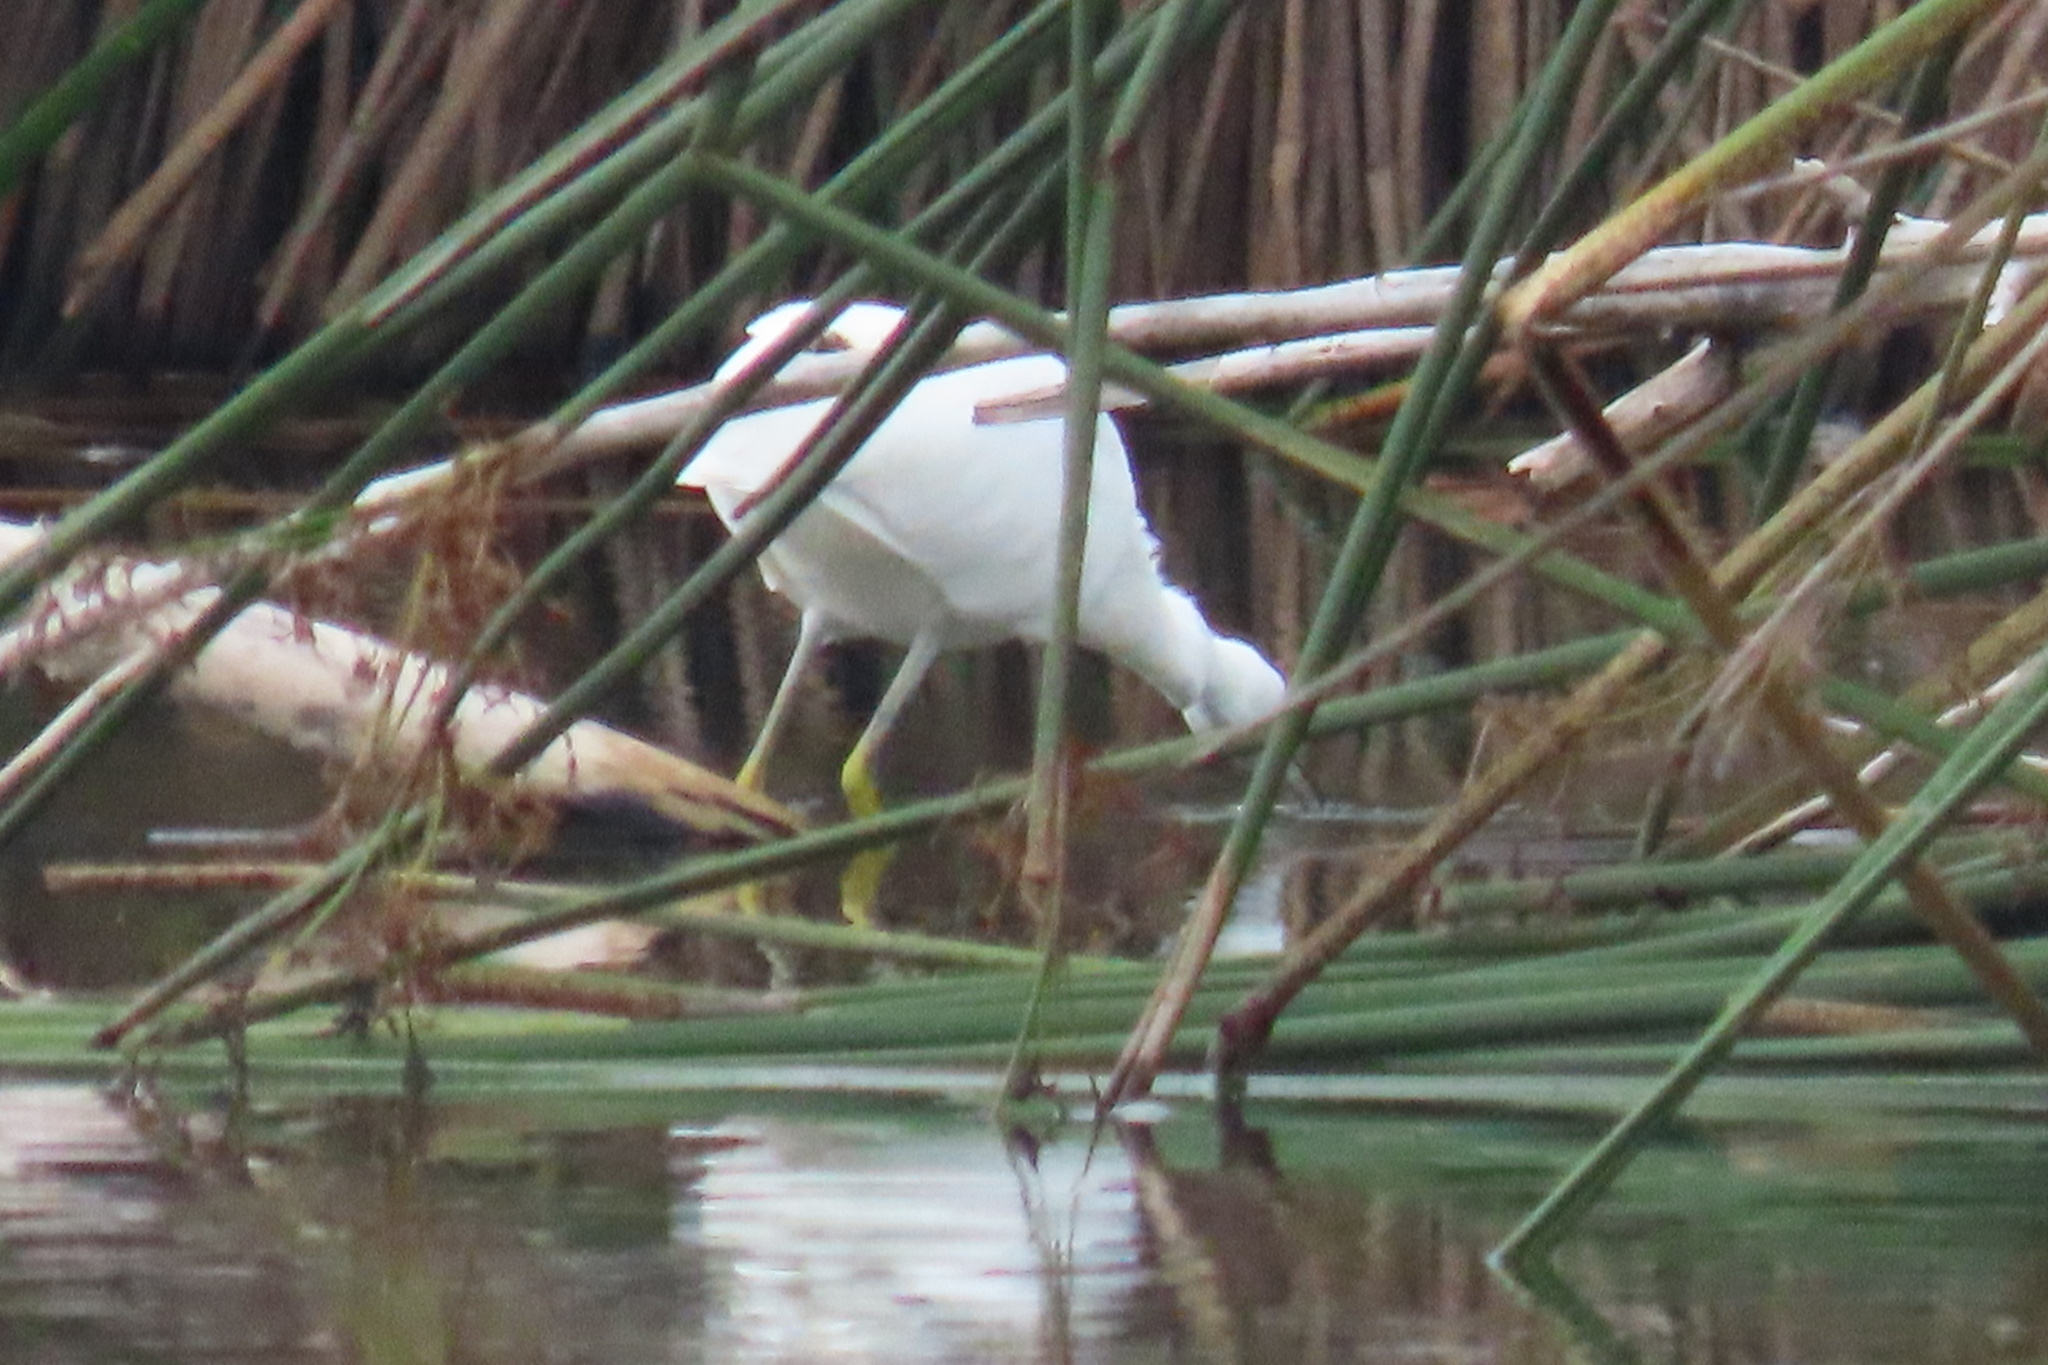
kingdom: Animalia
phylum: Chordata
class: Aves
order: Pelecaniformes
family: Ardeidae
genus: Egretta
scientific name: Egretta thula
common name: Snowy egret
